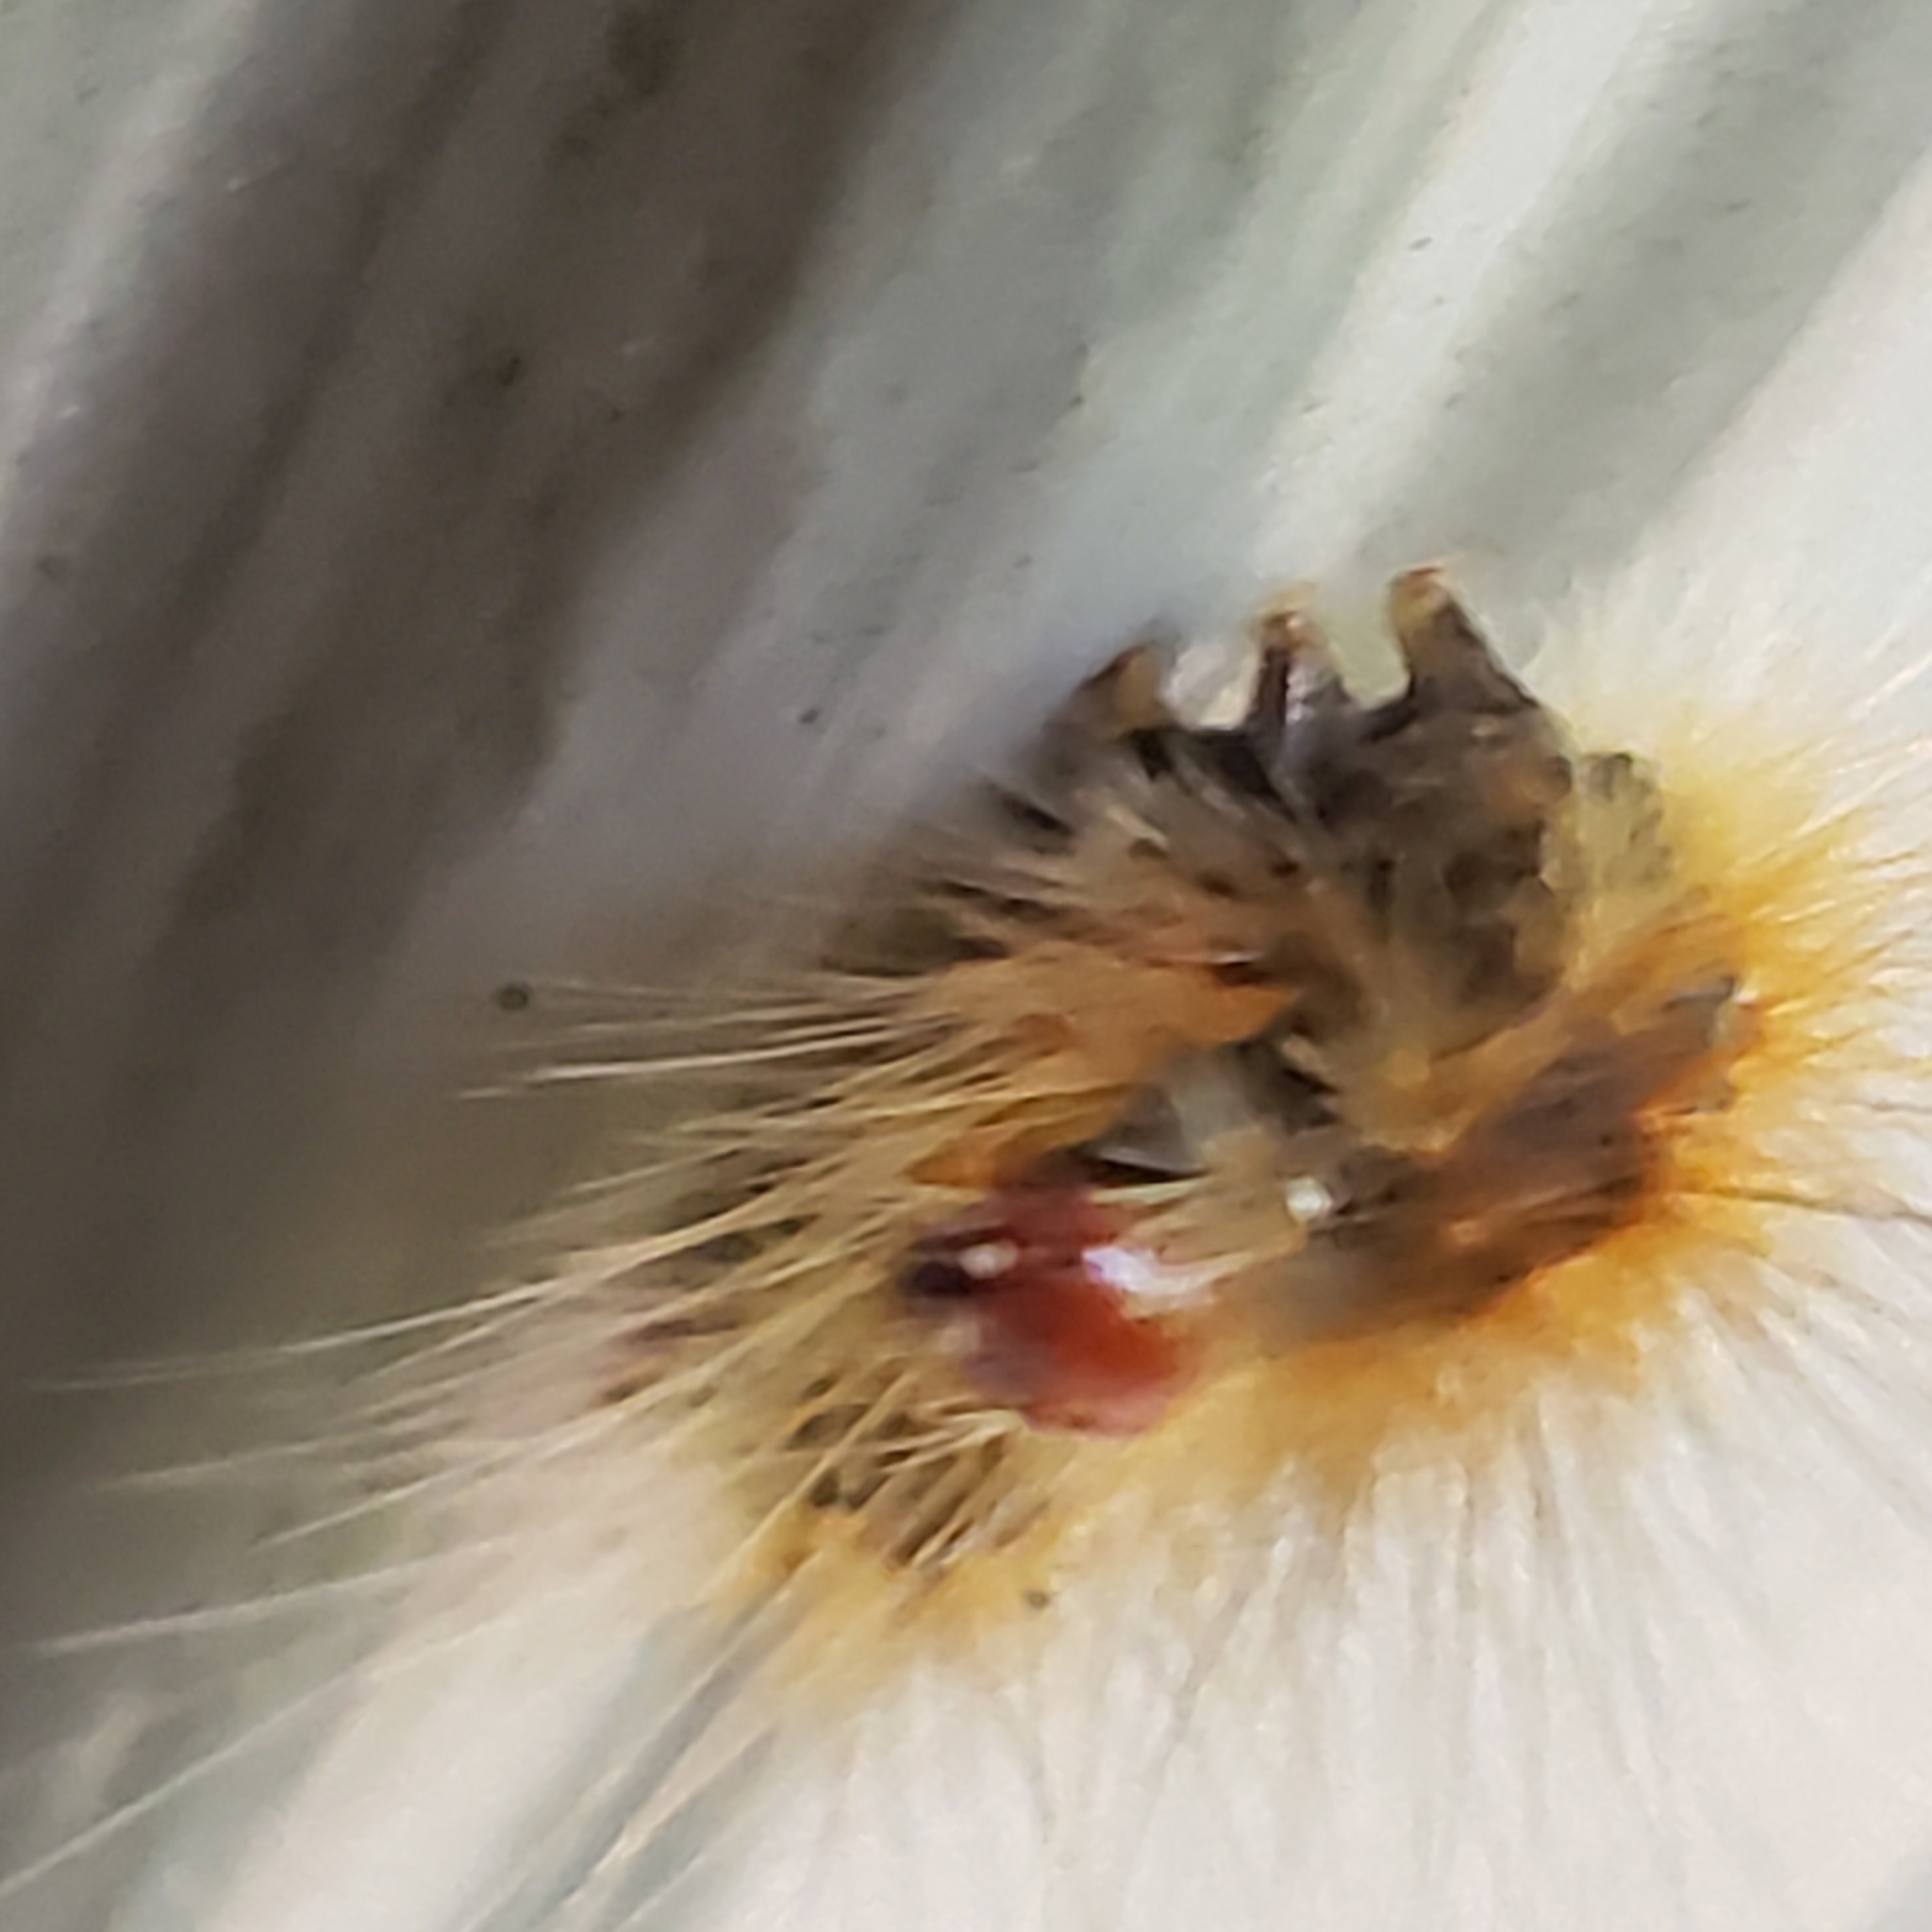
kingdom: Animalia
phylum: Arthropoda
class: Insecta
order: Lepidoptera
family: Erebidae
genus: Hyphantria
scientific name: Hyphantria cunea
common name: American white moth
